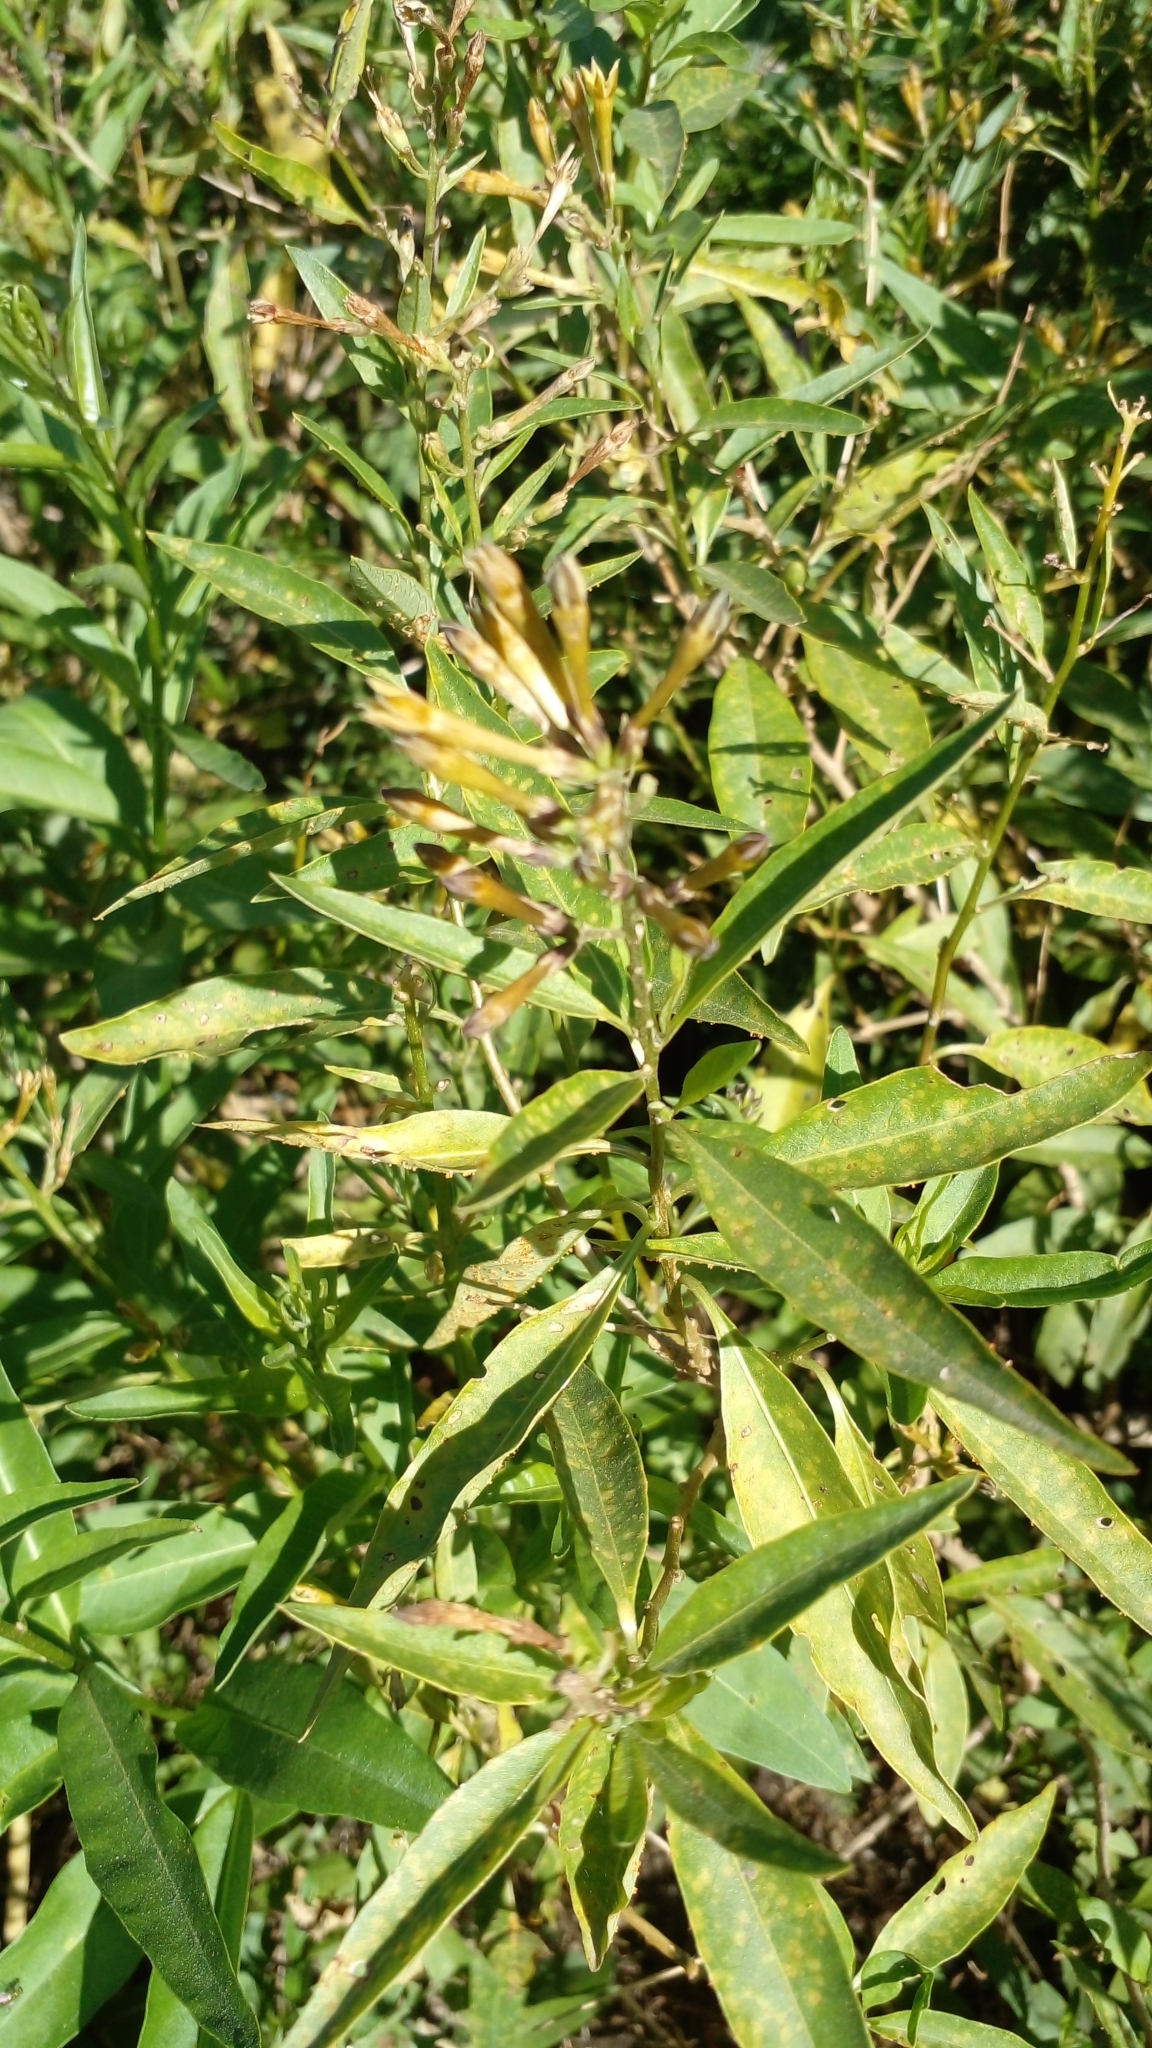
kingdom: Plantae
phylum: Tracheophyta
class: Magnoliopsida
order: Solanales
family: Solanaceae
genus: Cestrum
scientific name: Cestrum parqui
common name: Chilean cestrum
